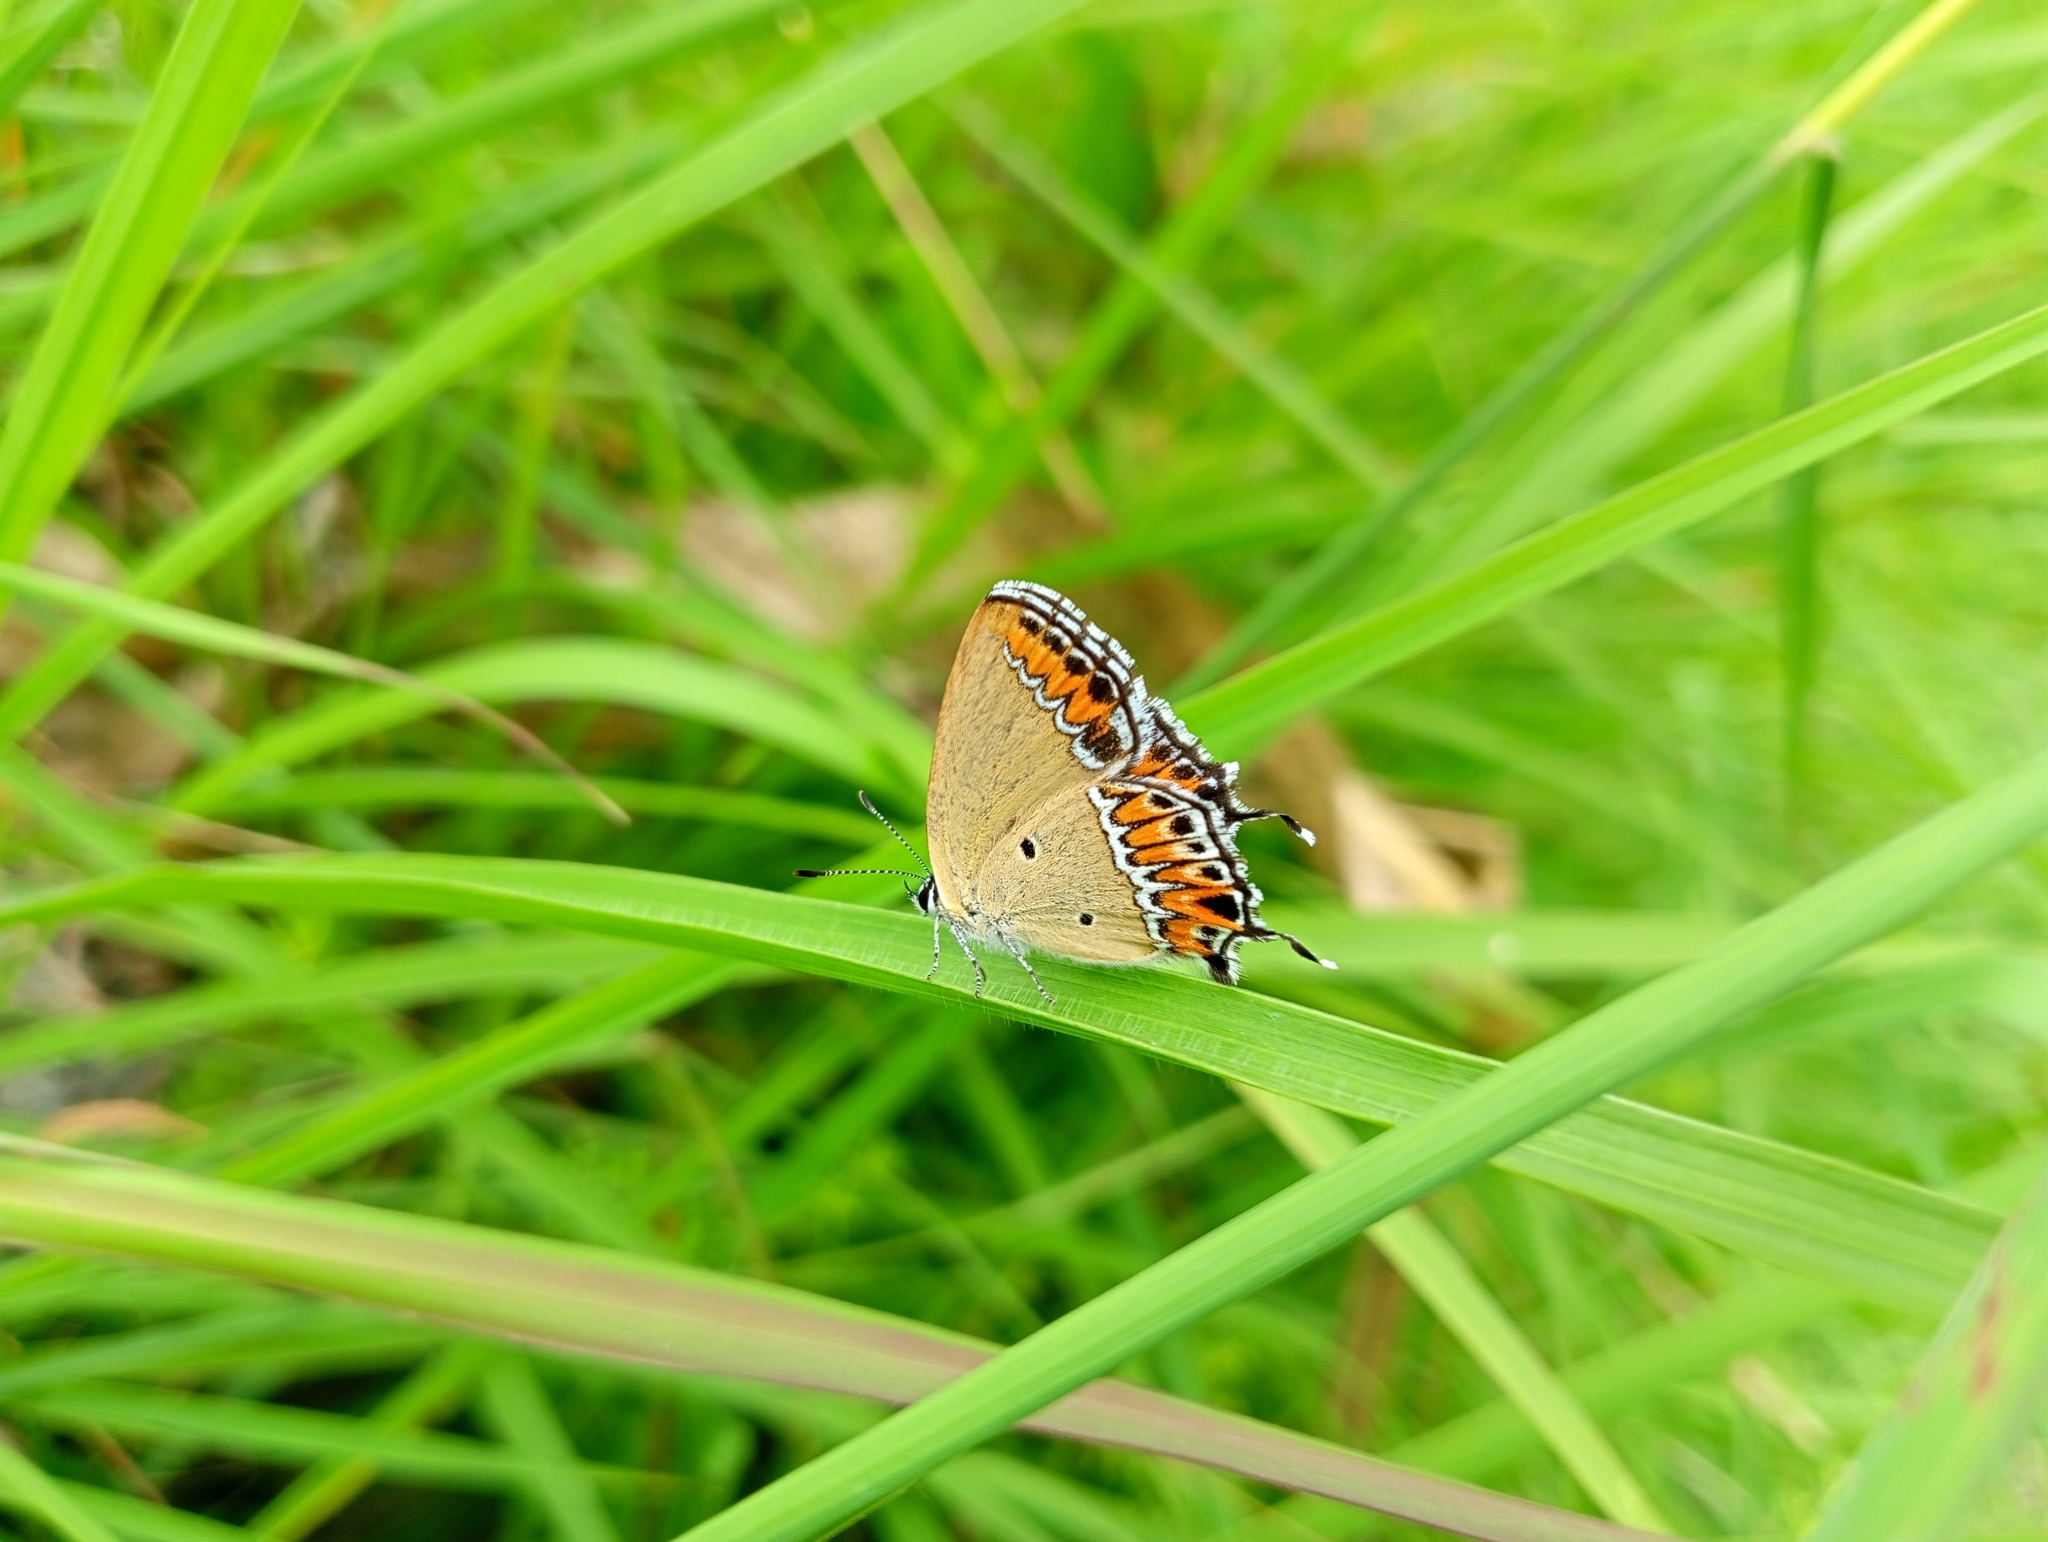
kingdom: Animalia
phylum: Arthropoda
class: Insecta
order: Lepidoptera
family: Lycaenidae
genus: Heliophorus
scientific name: Heliophorus sena
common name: Sorrel sapphire
